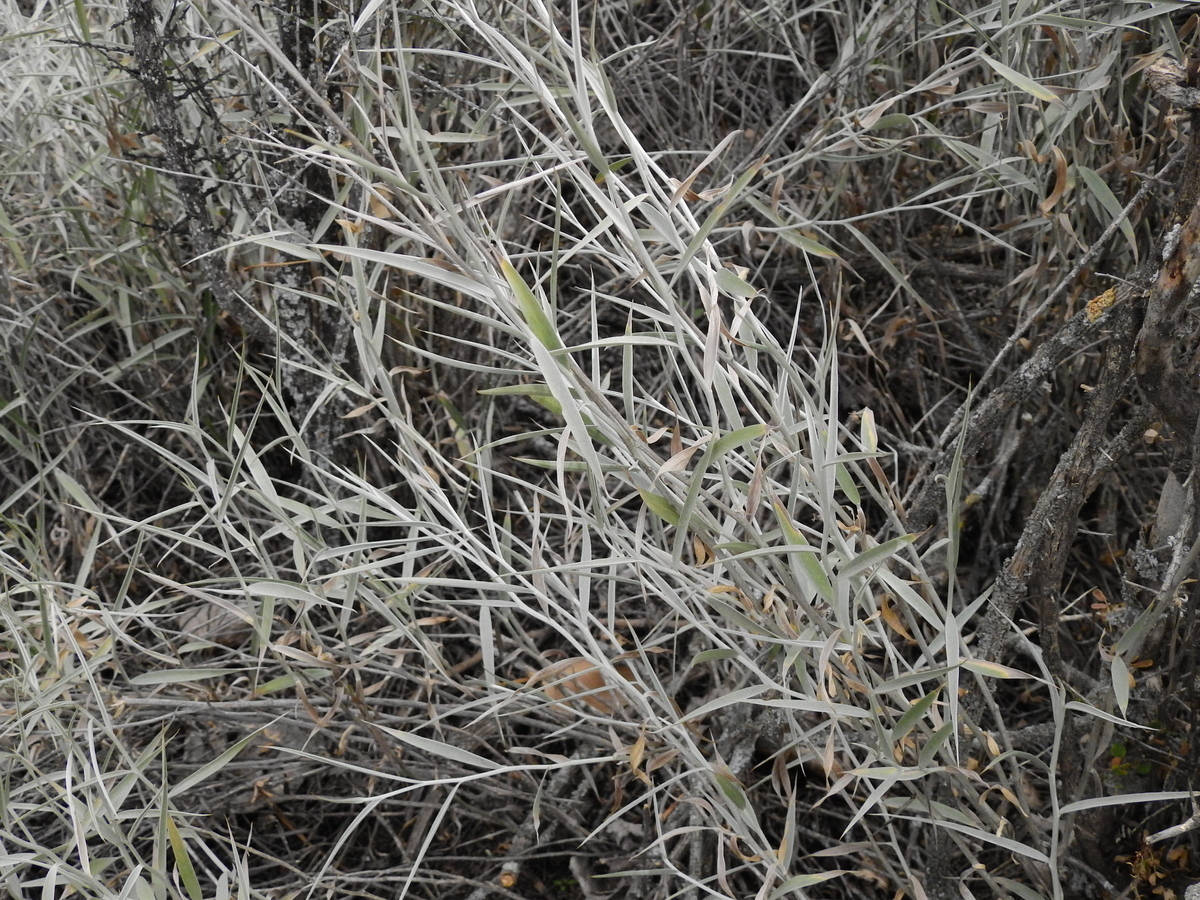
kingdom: Plantae
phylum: Tracheophyta
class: Magnoliopsida
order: Asterales
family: Asteraceae
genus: Hyalis
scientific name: Hyalis argentea
